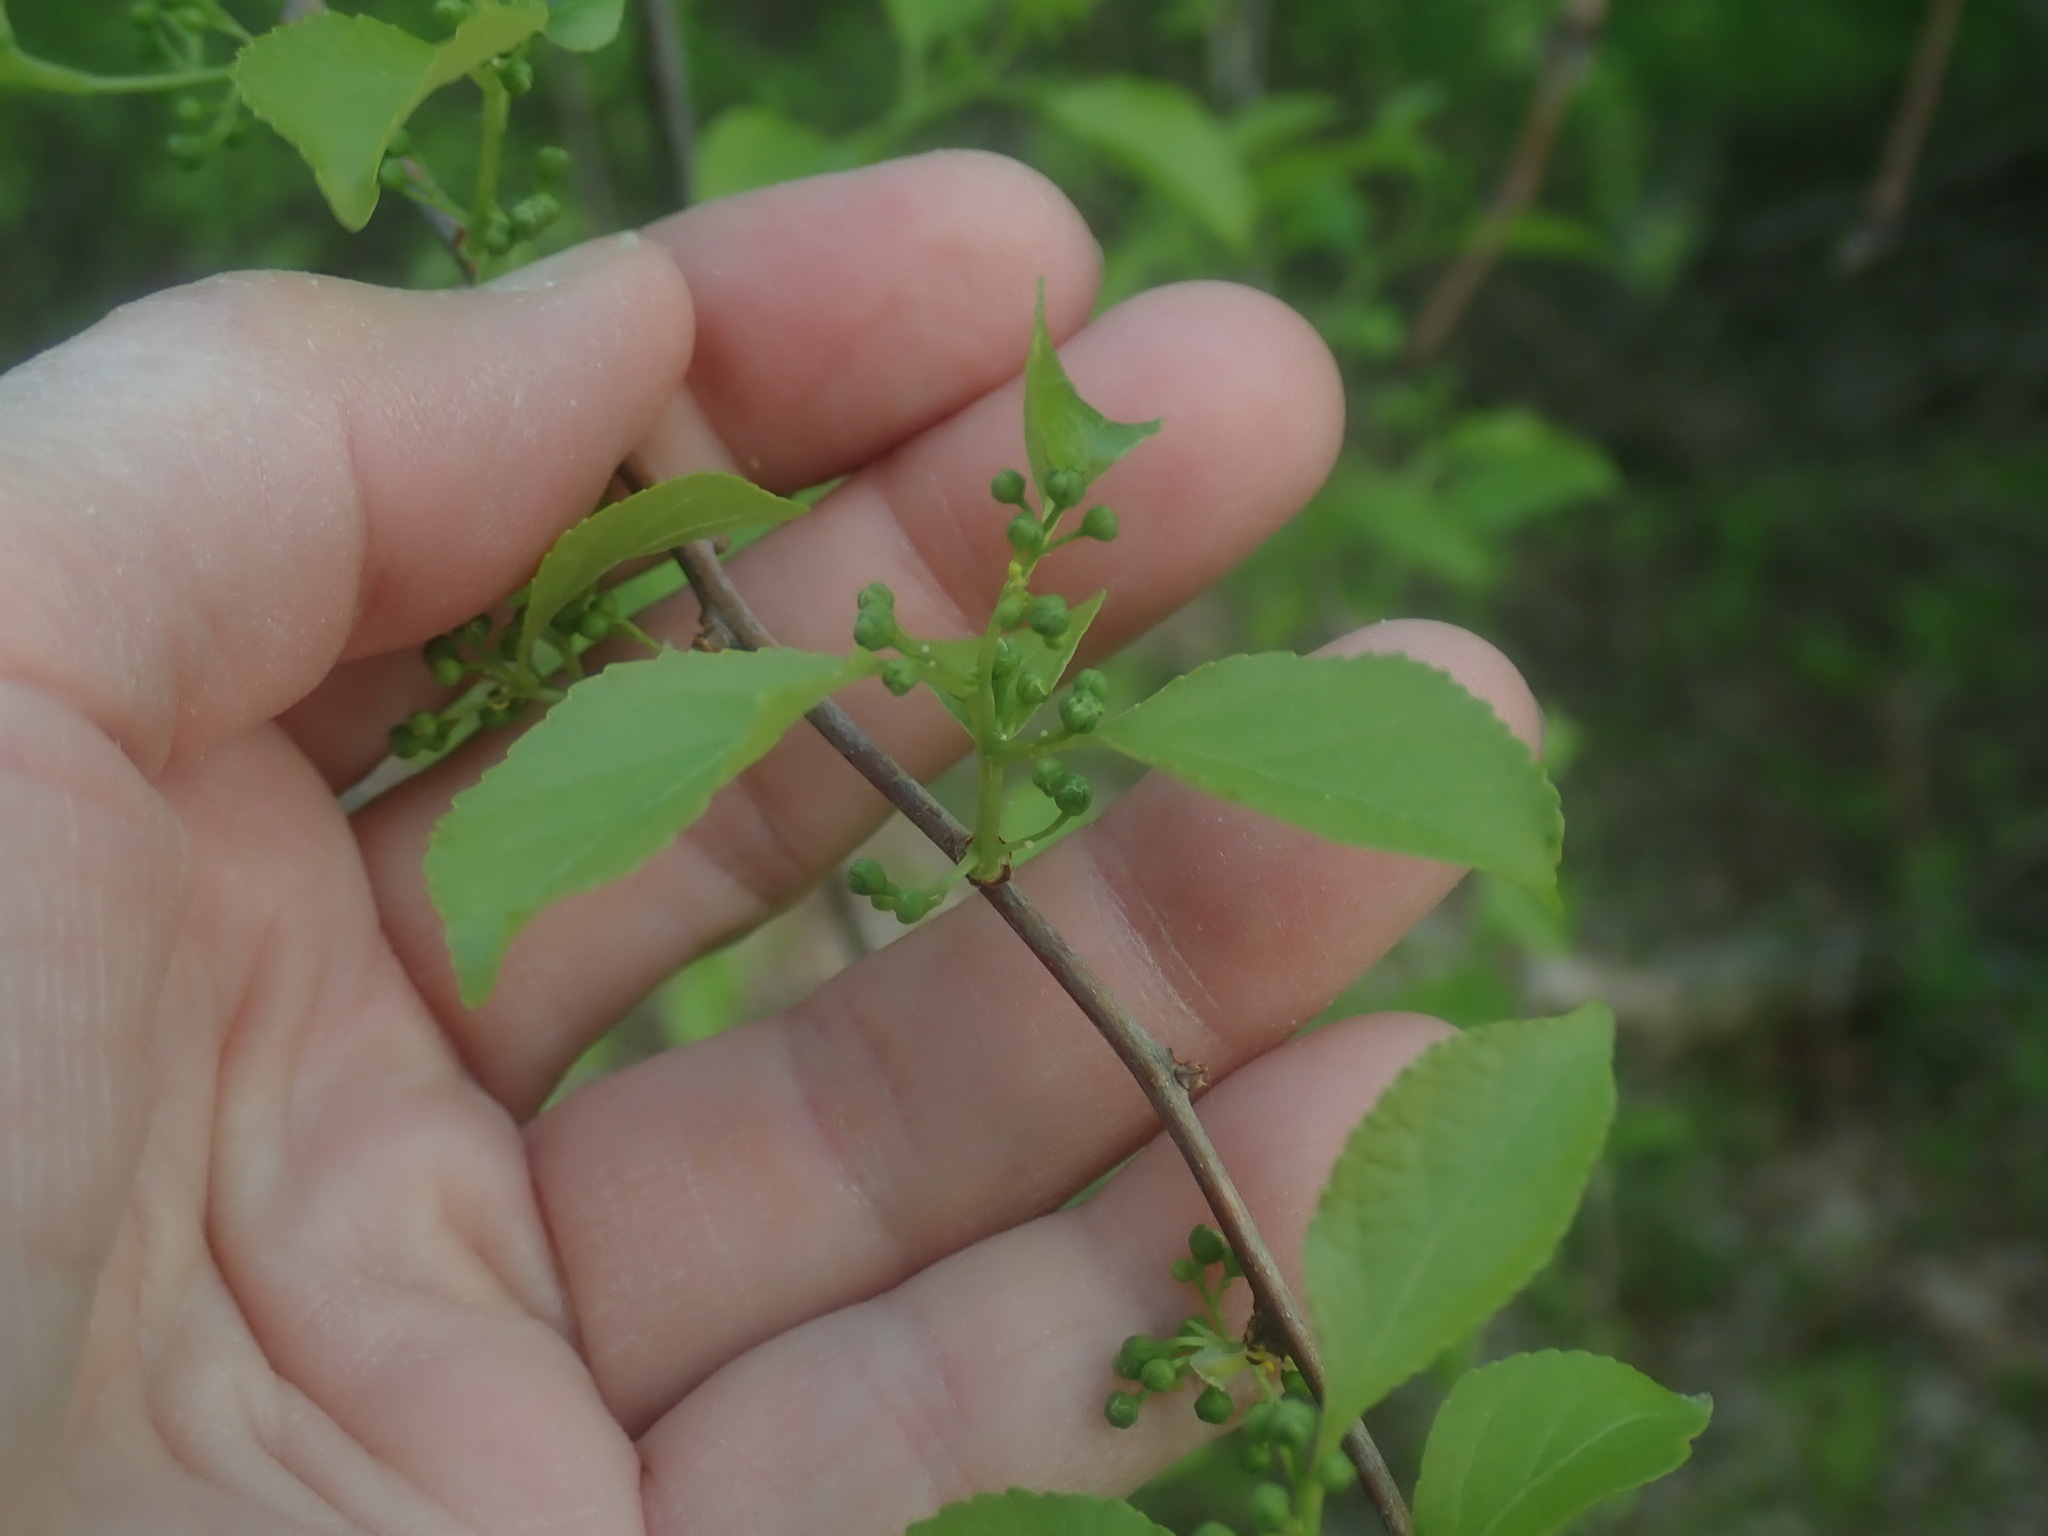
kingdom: Plantae
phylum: Tracheophyta
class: Magnoliopsida
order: Celastrales
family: Celastraceae
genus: Celastrus
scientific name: Celastrus orbiculatus
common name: Oriental bittersweet
